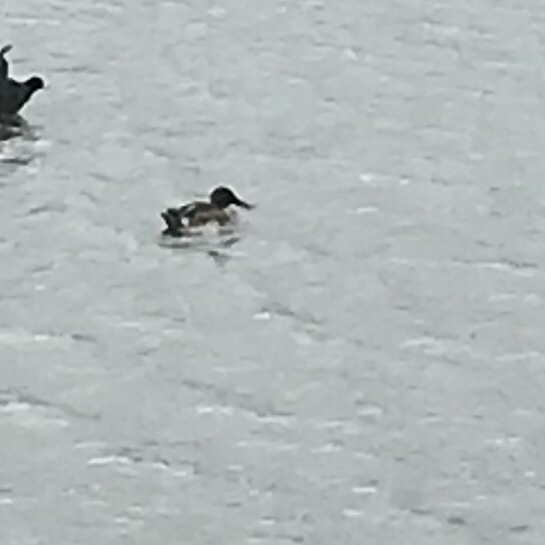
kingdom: Animalia
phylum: Chordata
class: Aves
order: Anseriformes
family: Anatidae
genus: Spatula
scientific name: Spatula clypeata
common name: Northern shoveler
